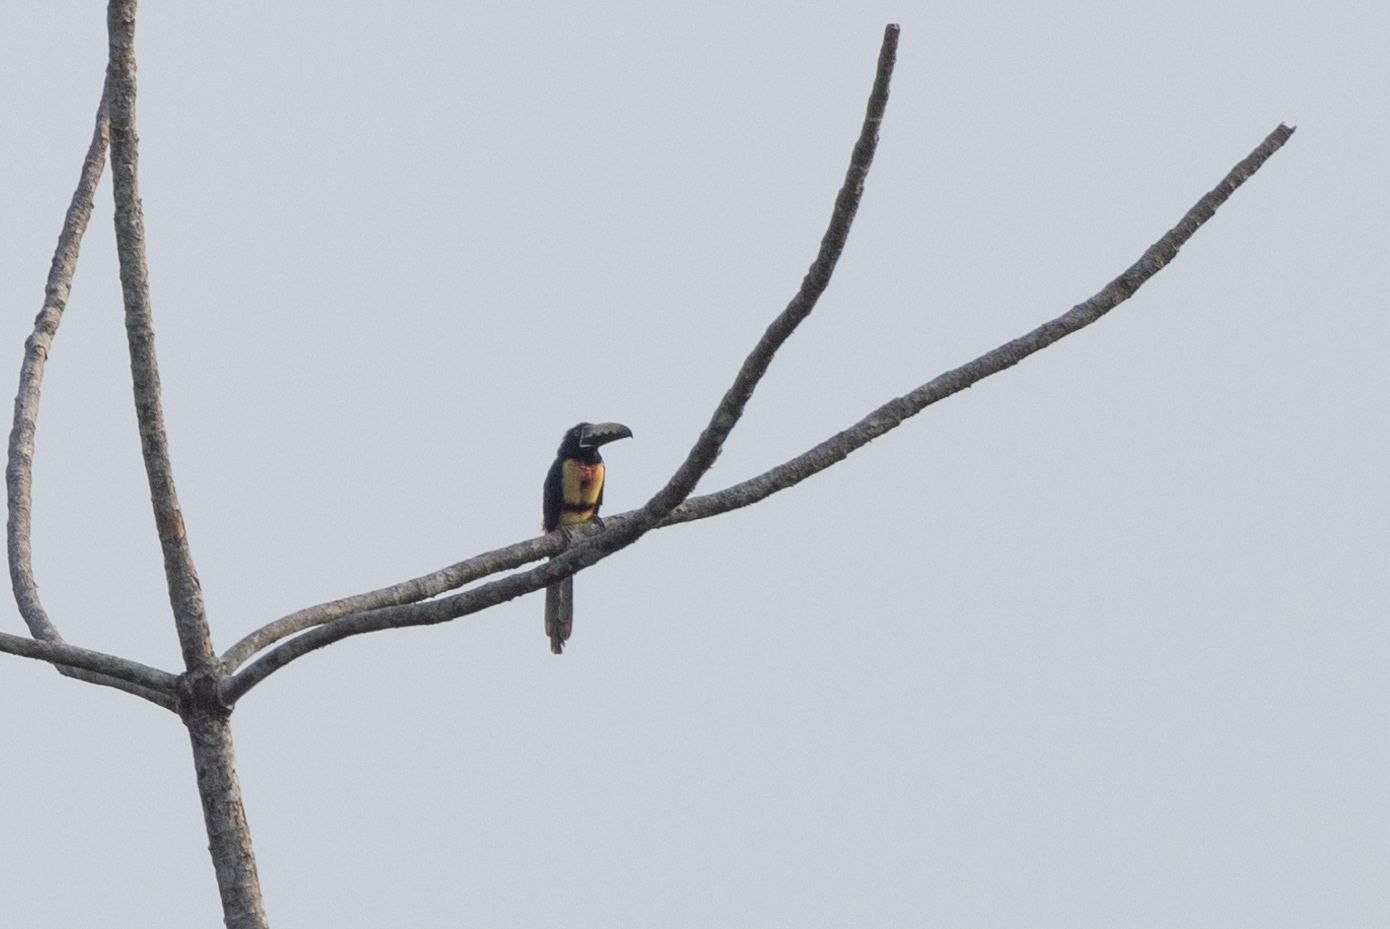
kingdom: Animalia
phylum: Chordata
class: Aves
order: Piciformes
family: Ramphastidae
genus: Pteroglossus
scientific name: Pteroglossus torquatus
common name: Collared aracari
